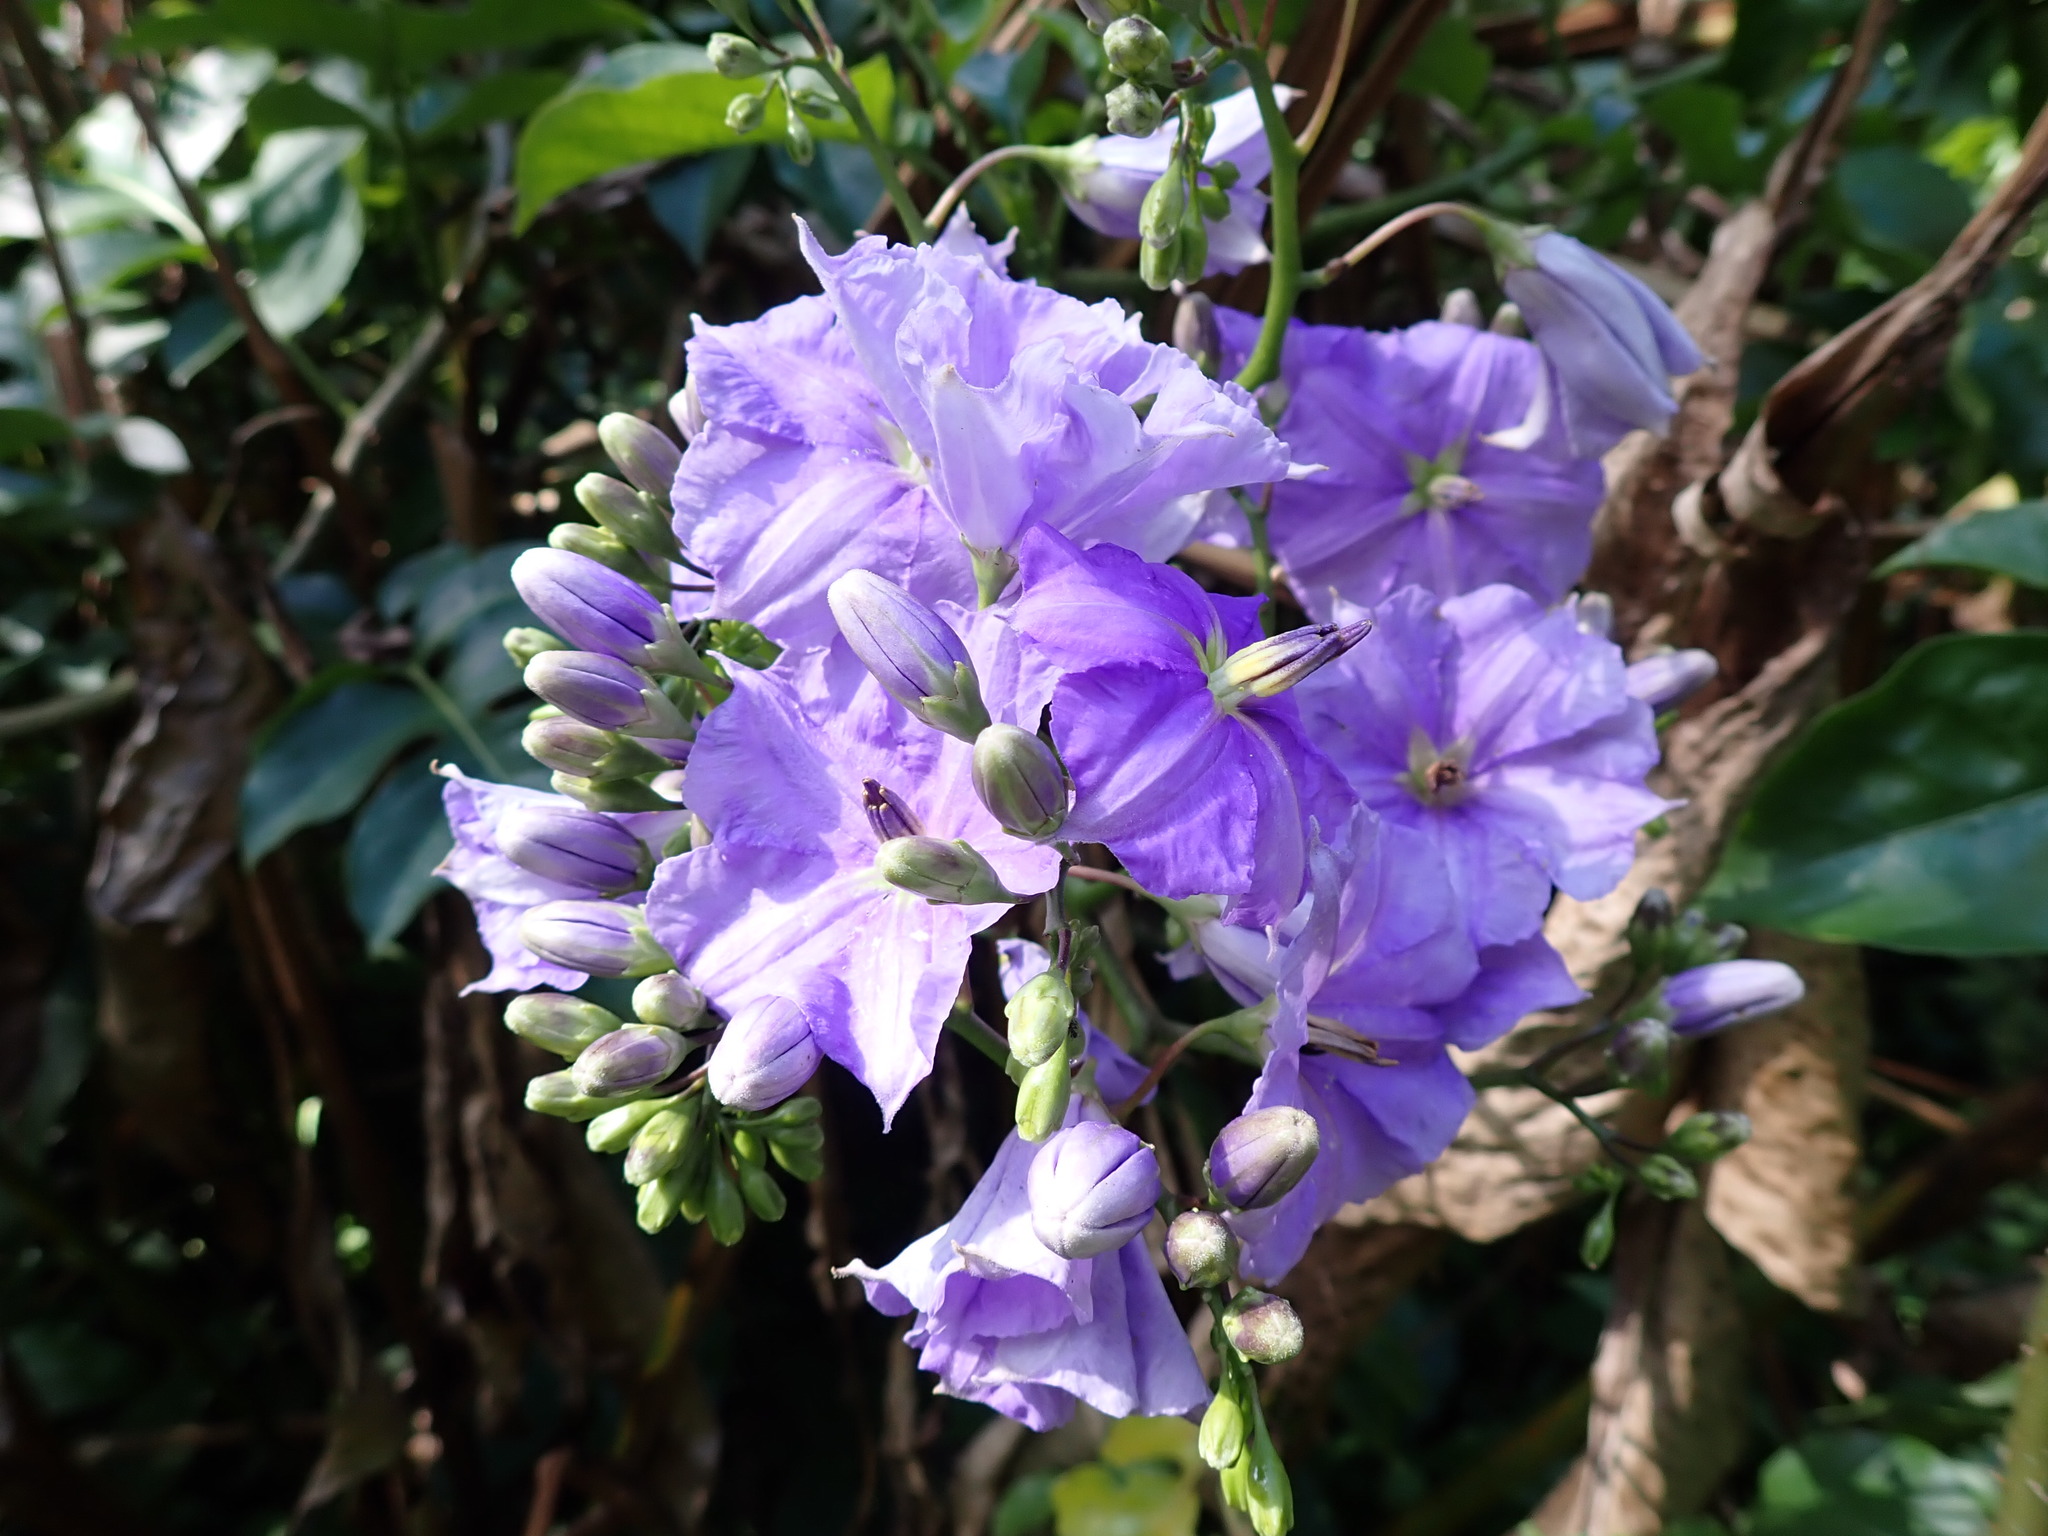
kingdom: Plantae
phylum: Tracheophyta
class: Magnoliopsida
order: Solanales
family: Solanaceae
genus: Solanum
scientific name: Solanum wendlandii
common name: Costa rican nightshade
